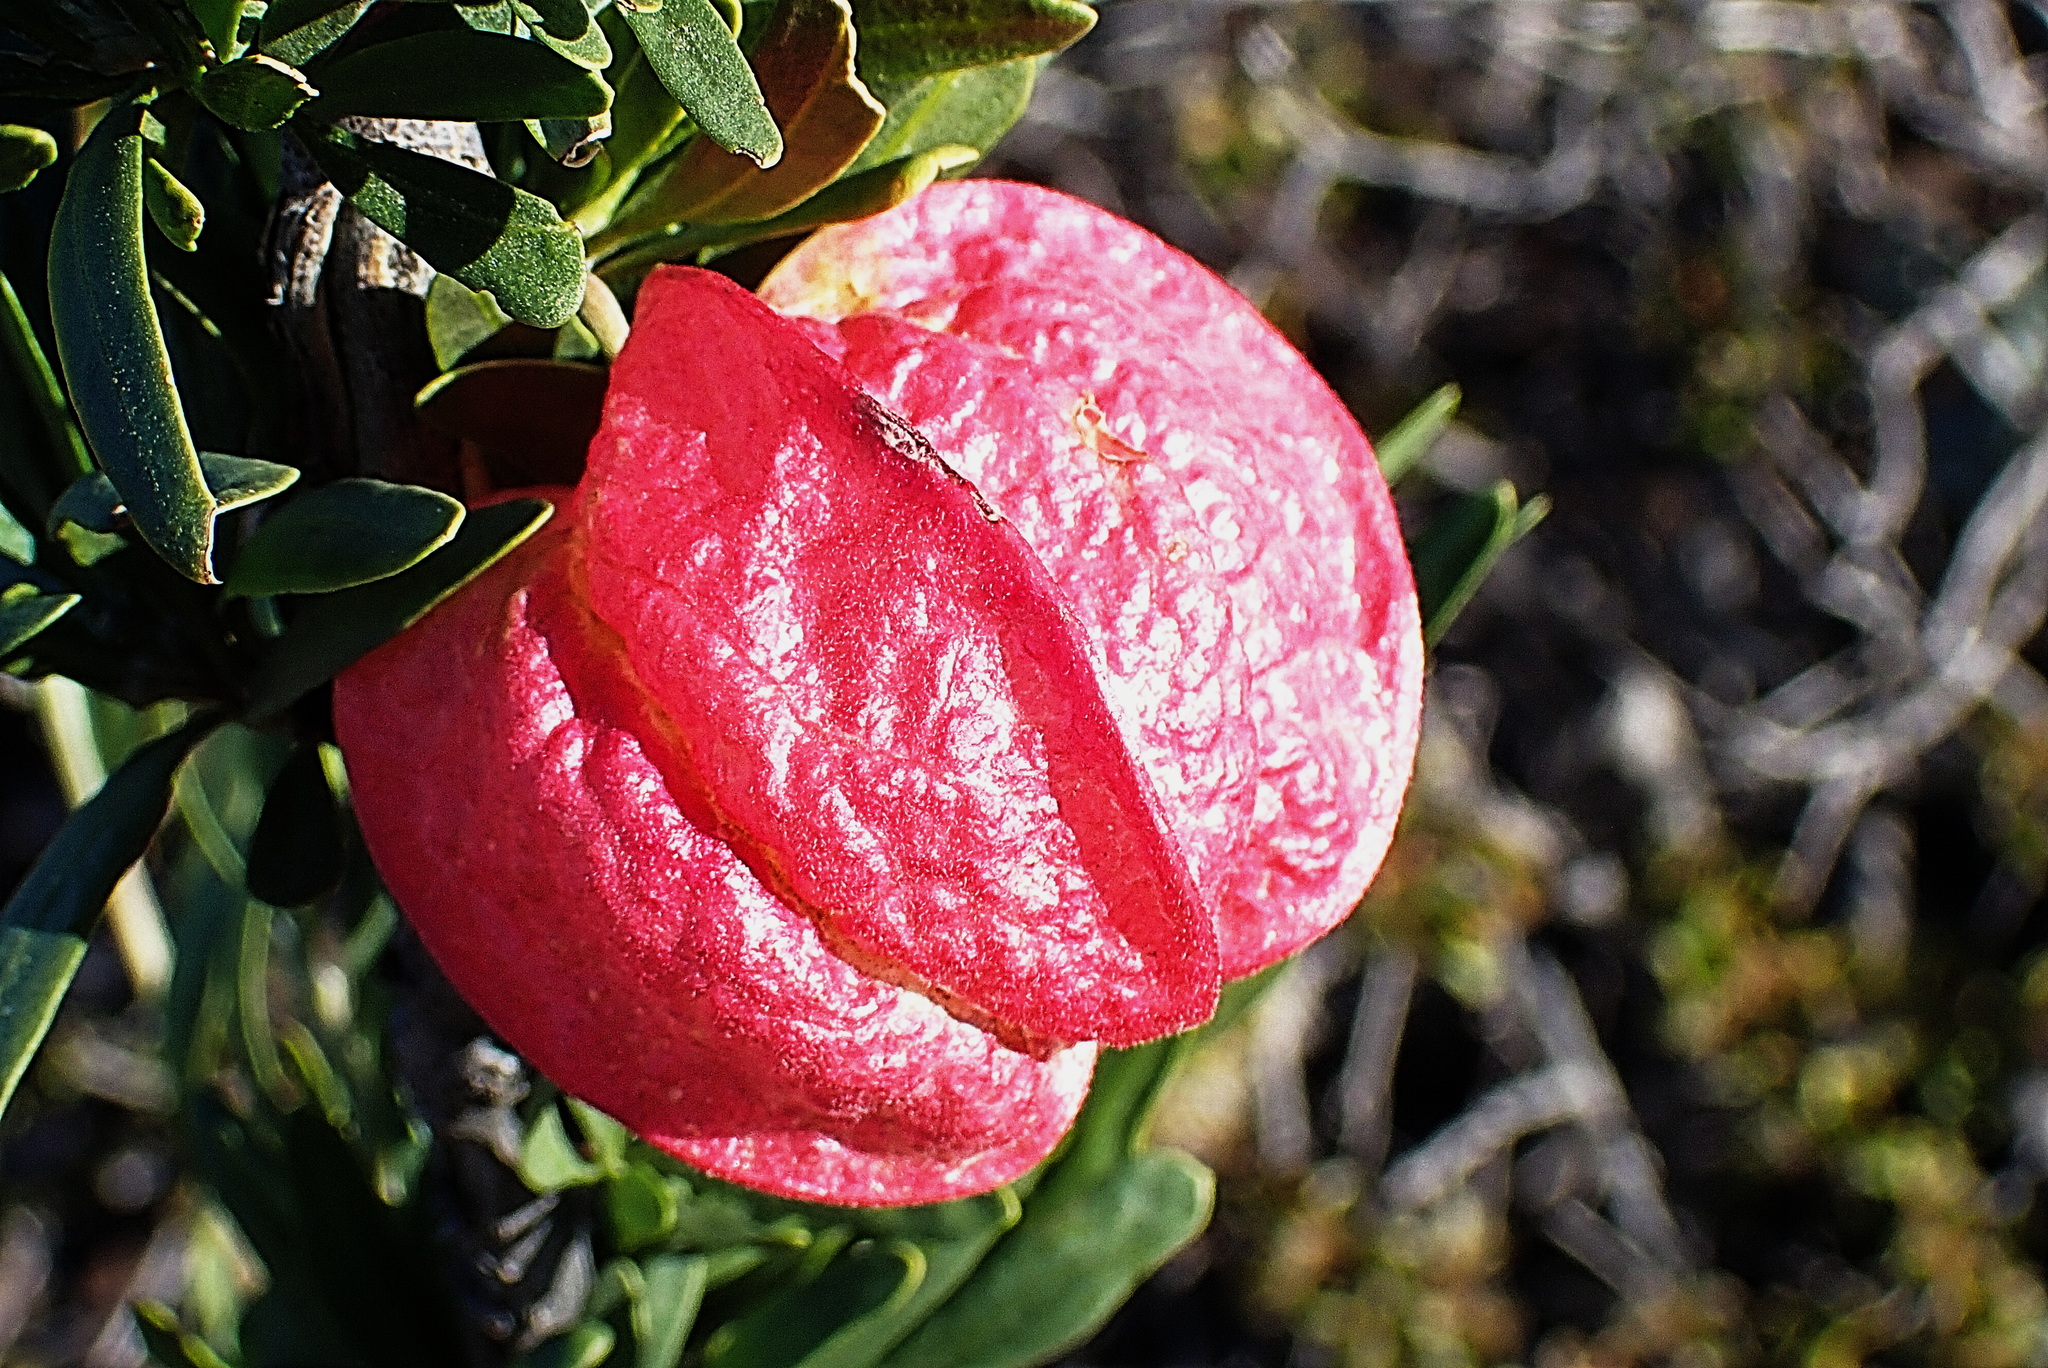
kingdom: Plantae
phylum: Tracheophyta
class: Magnoliopsida
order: Sapindales
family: Meliaceae
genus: Nymania
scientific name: Nymania capensis
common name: Chinese lantern tree
